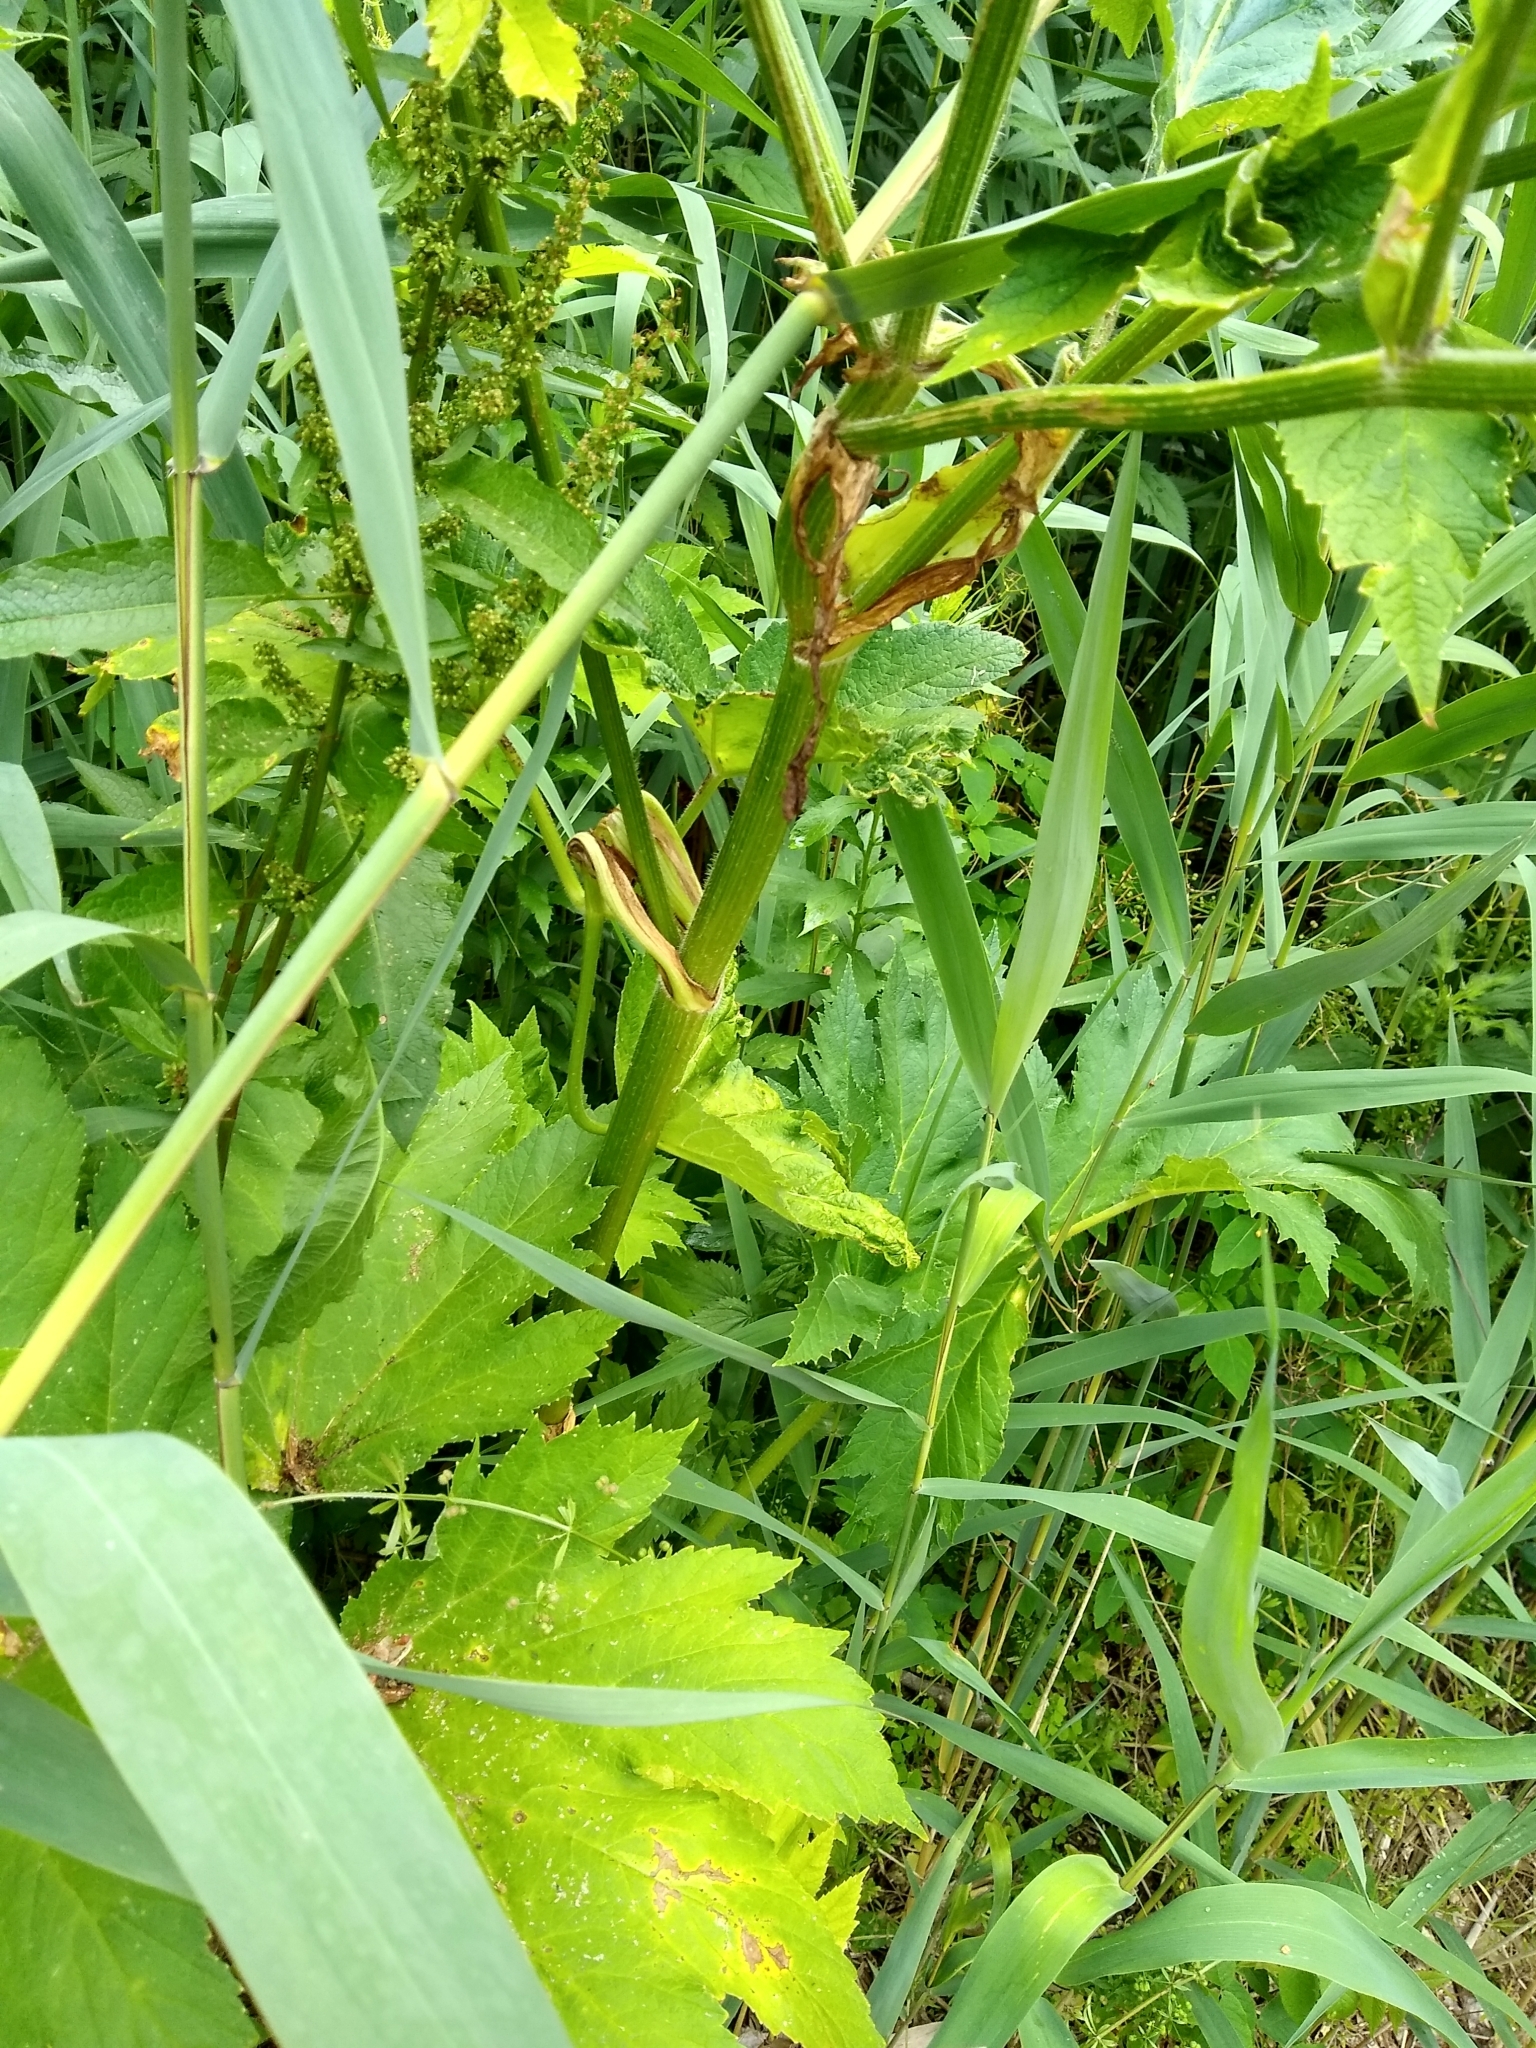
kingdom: Plantae
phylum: Tracheophyta
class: Magnoliopsida
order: Apiales
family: Apiaceae
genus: Heracleum
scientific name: Heracleum maximum
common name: American cow parsnip
